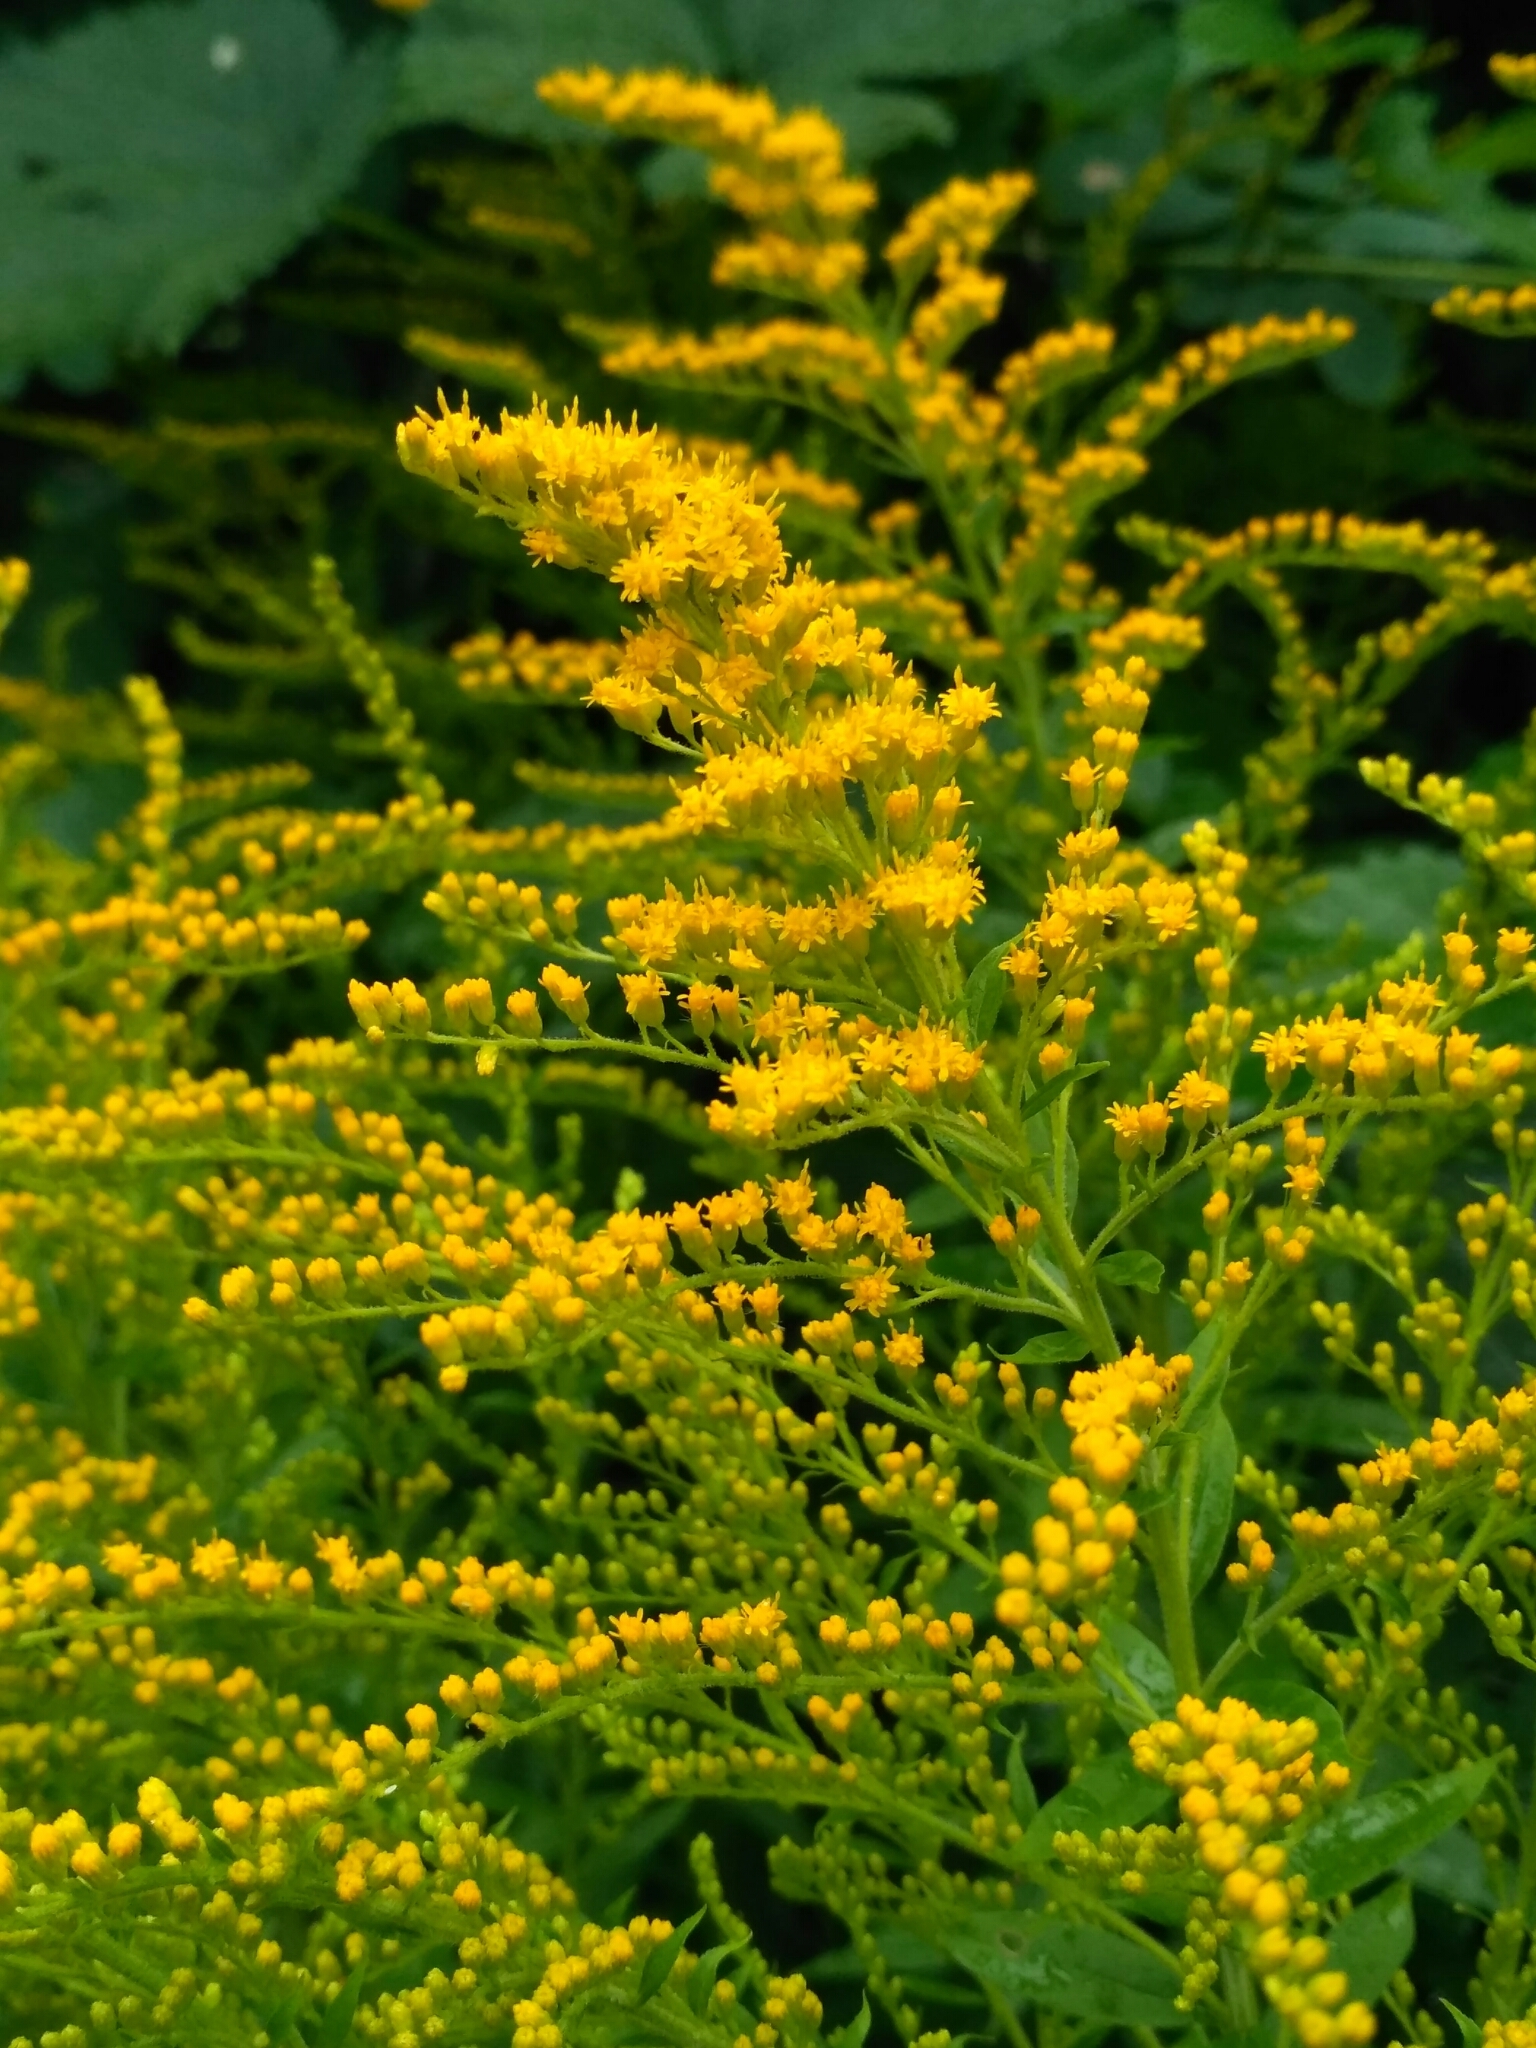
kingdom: Plantae
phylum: Tracheophyta
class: Magnoliopsida
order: Asterales
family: Asteraceae
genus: Solidago
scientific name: Solidago canadensis
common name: Canada goldenrod
